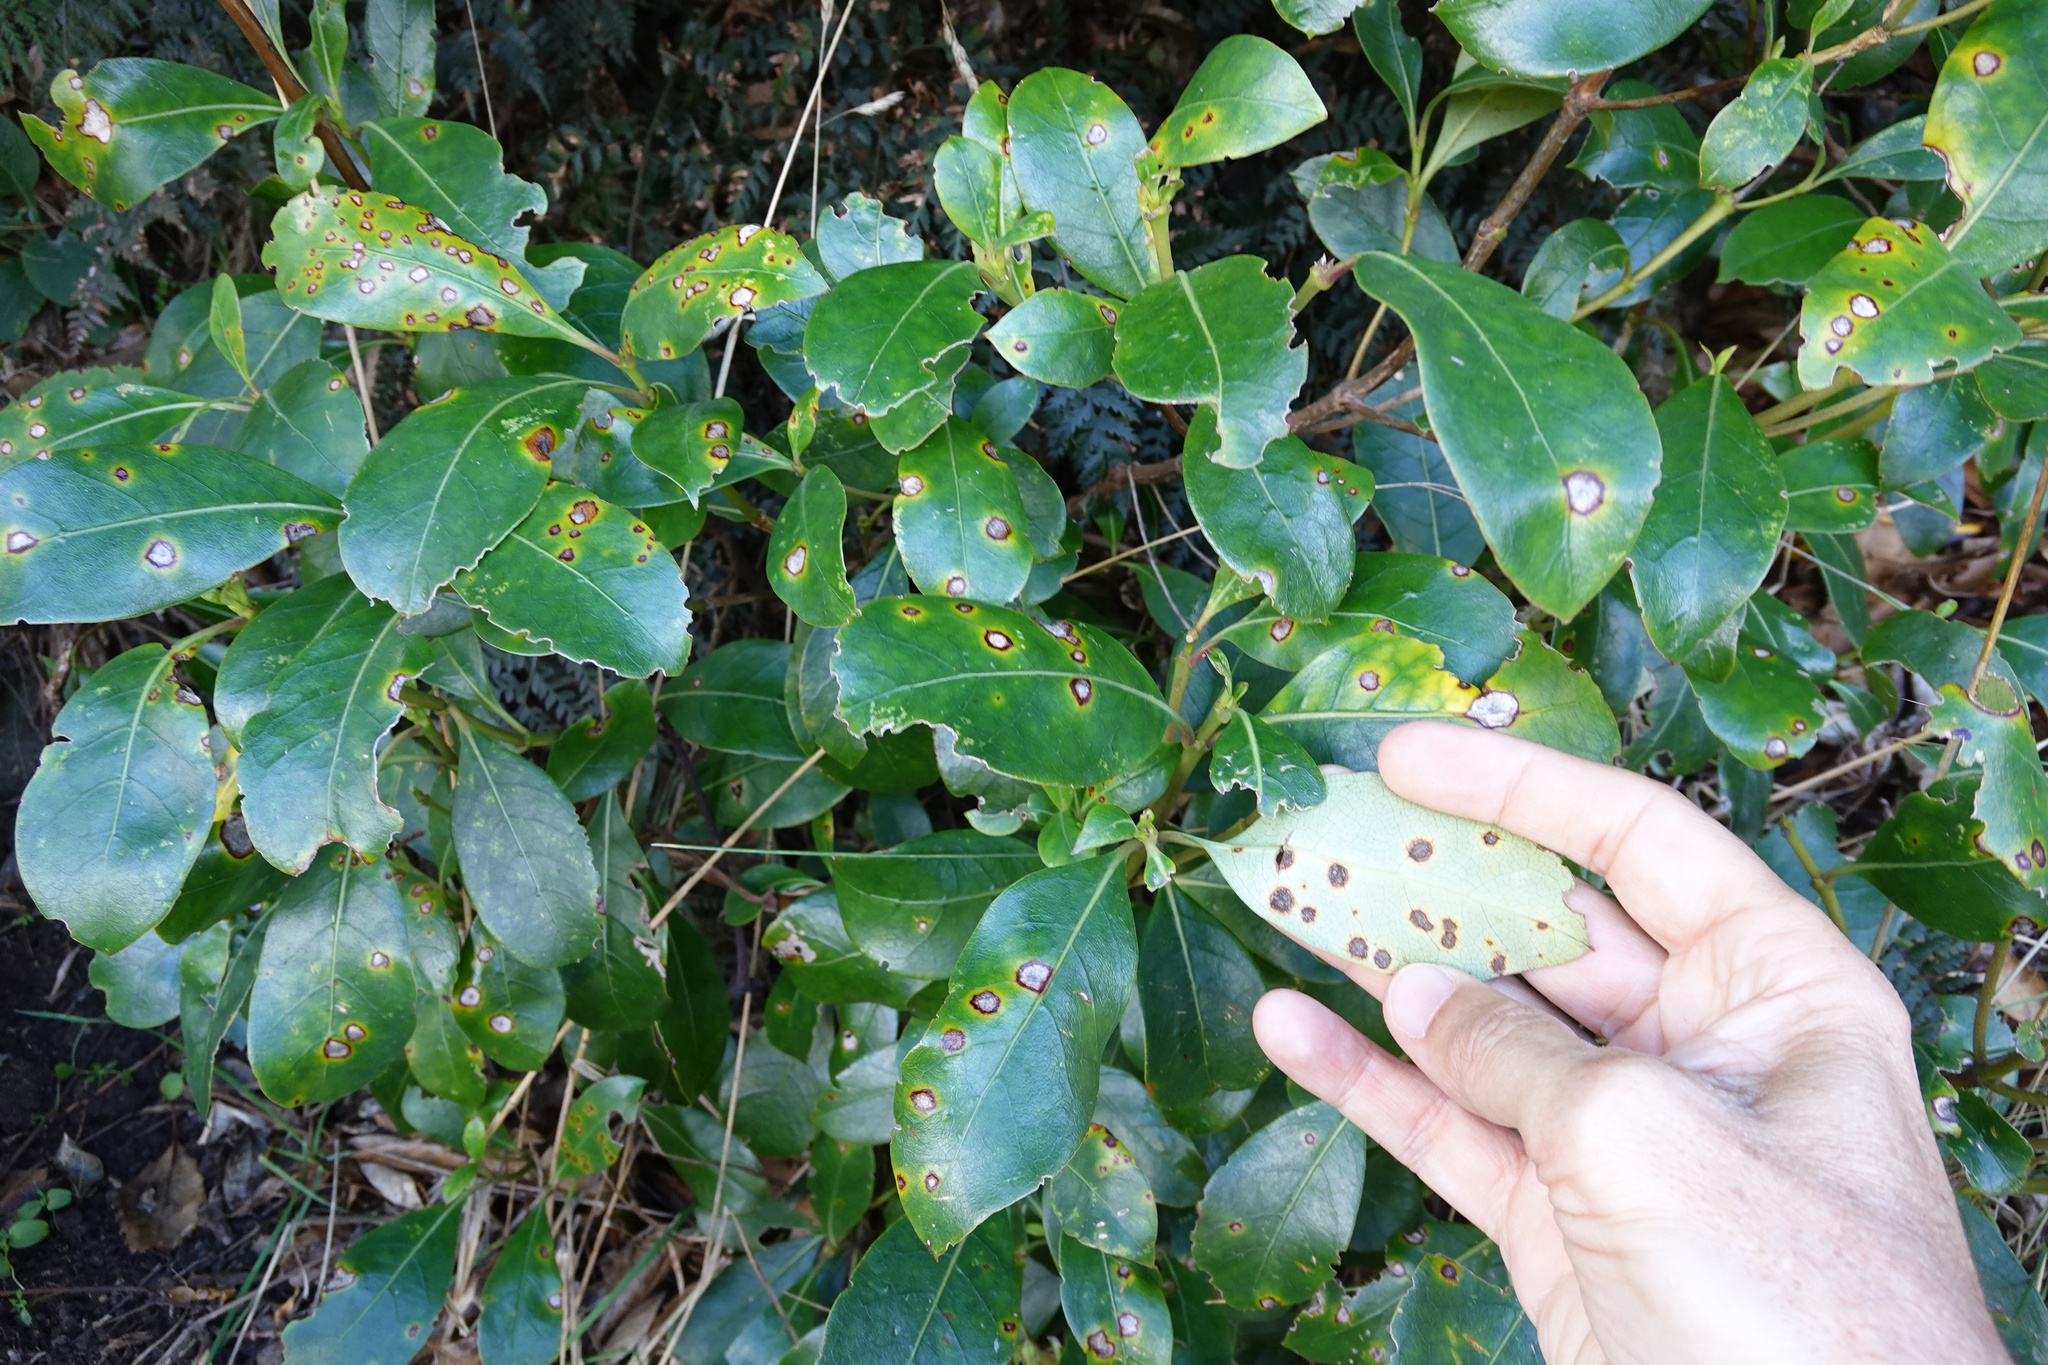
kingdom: Fungi
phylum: Basidiomycota
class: Pucciniomycetes
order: Pucciniales
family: Pucciniaceae
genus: Puccinia
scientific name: Puccinia coprosmae
